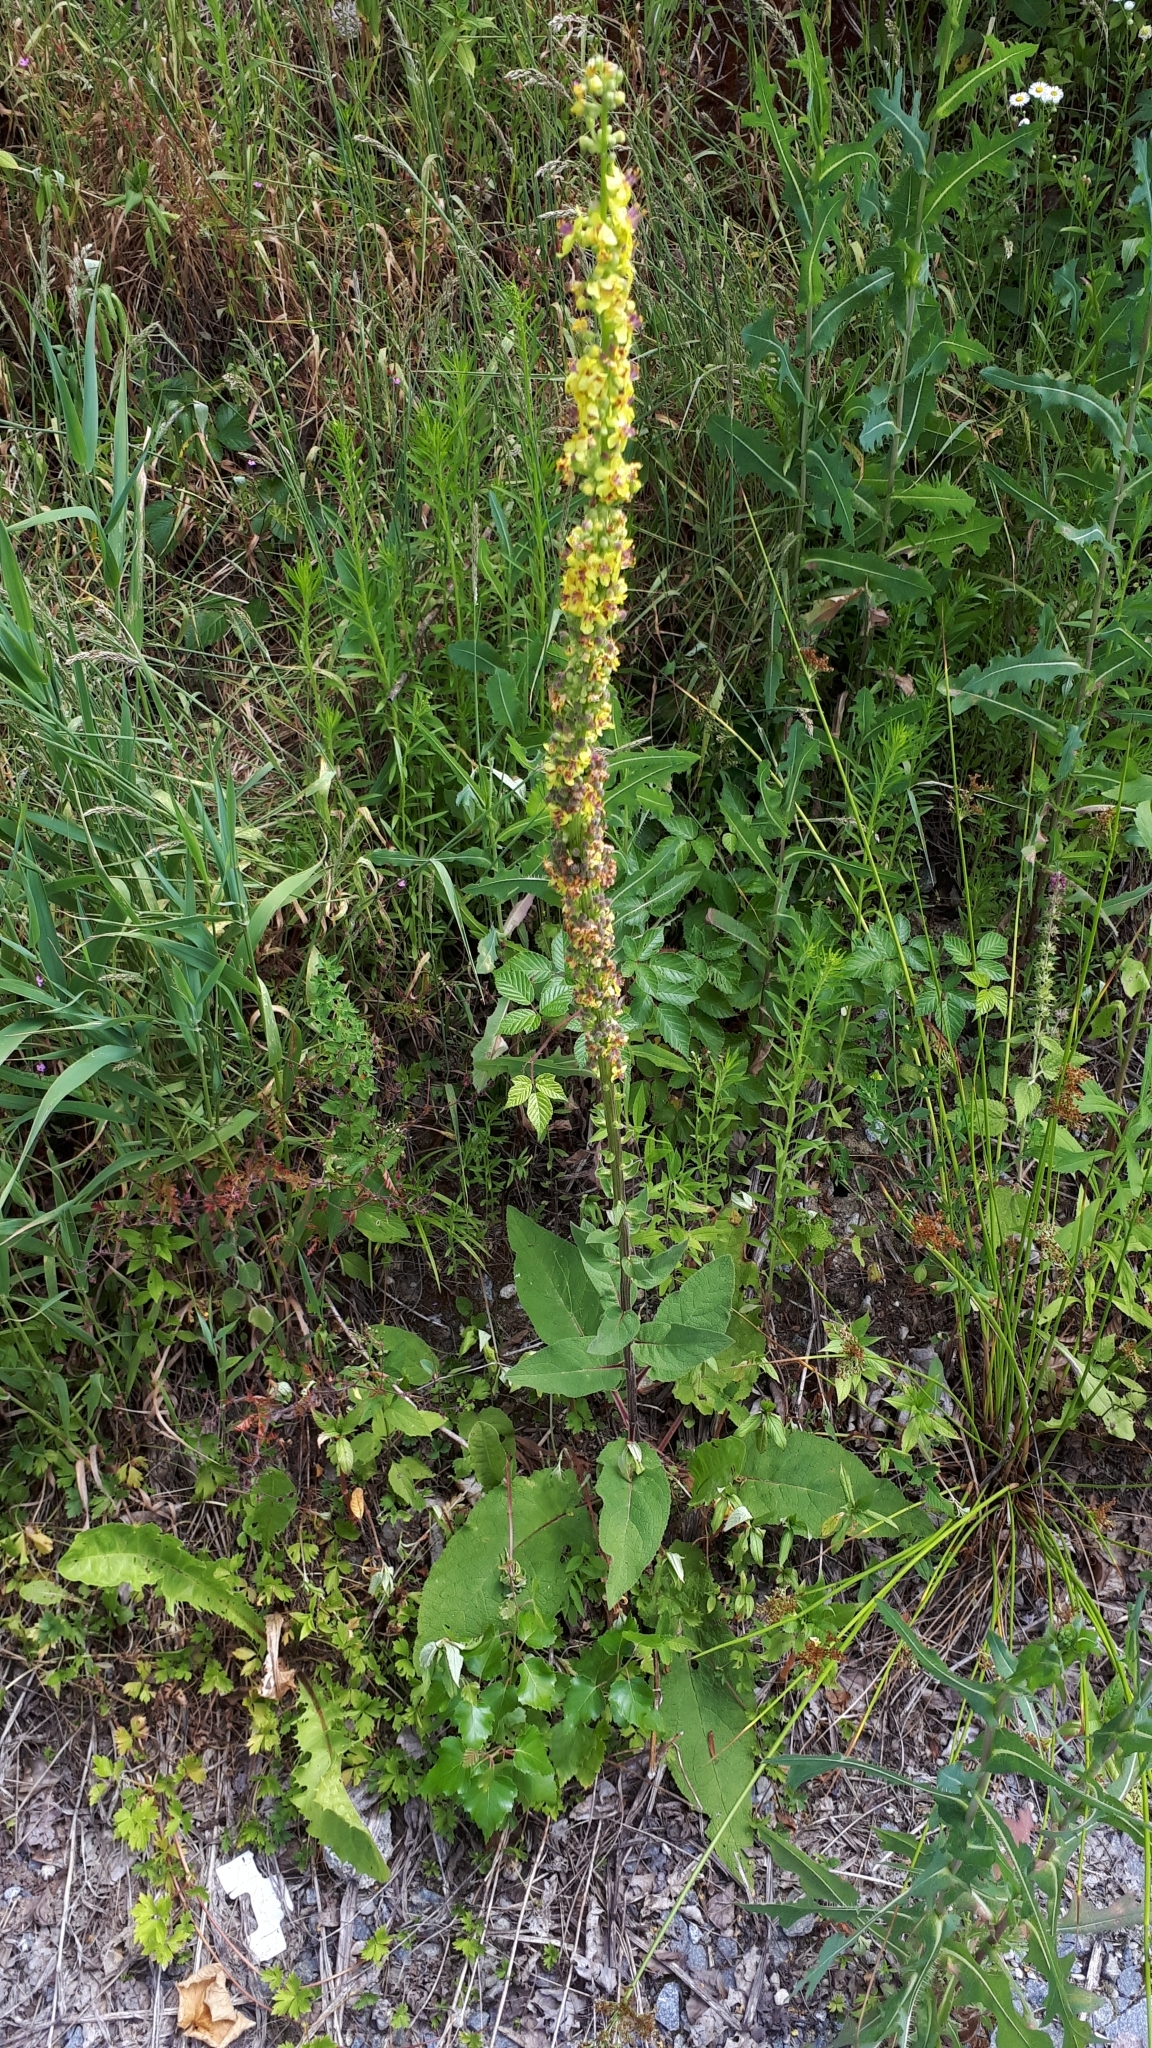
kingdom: Plantae
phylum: Tracheophyta
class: Magnoliopsida
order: Lamiales
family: Scrophulariaceae
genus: Verbascum
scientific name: Verbascum nigrum
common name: Dark mullein
